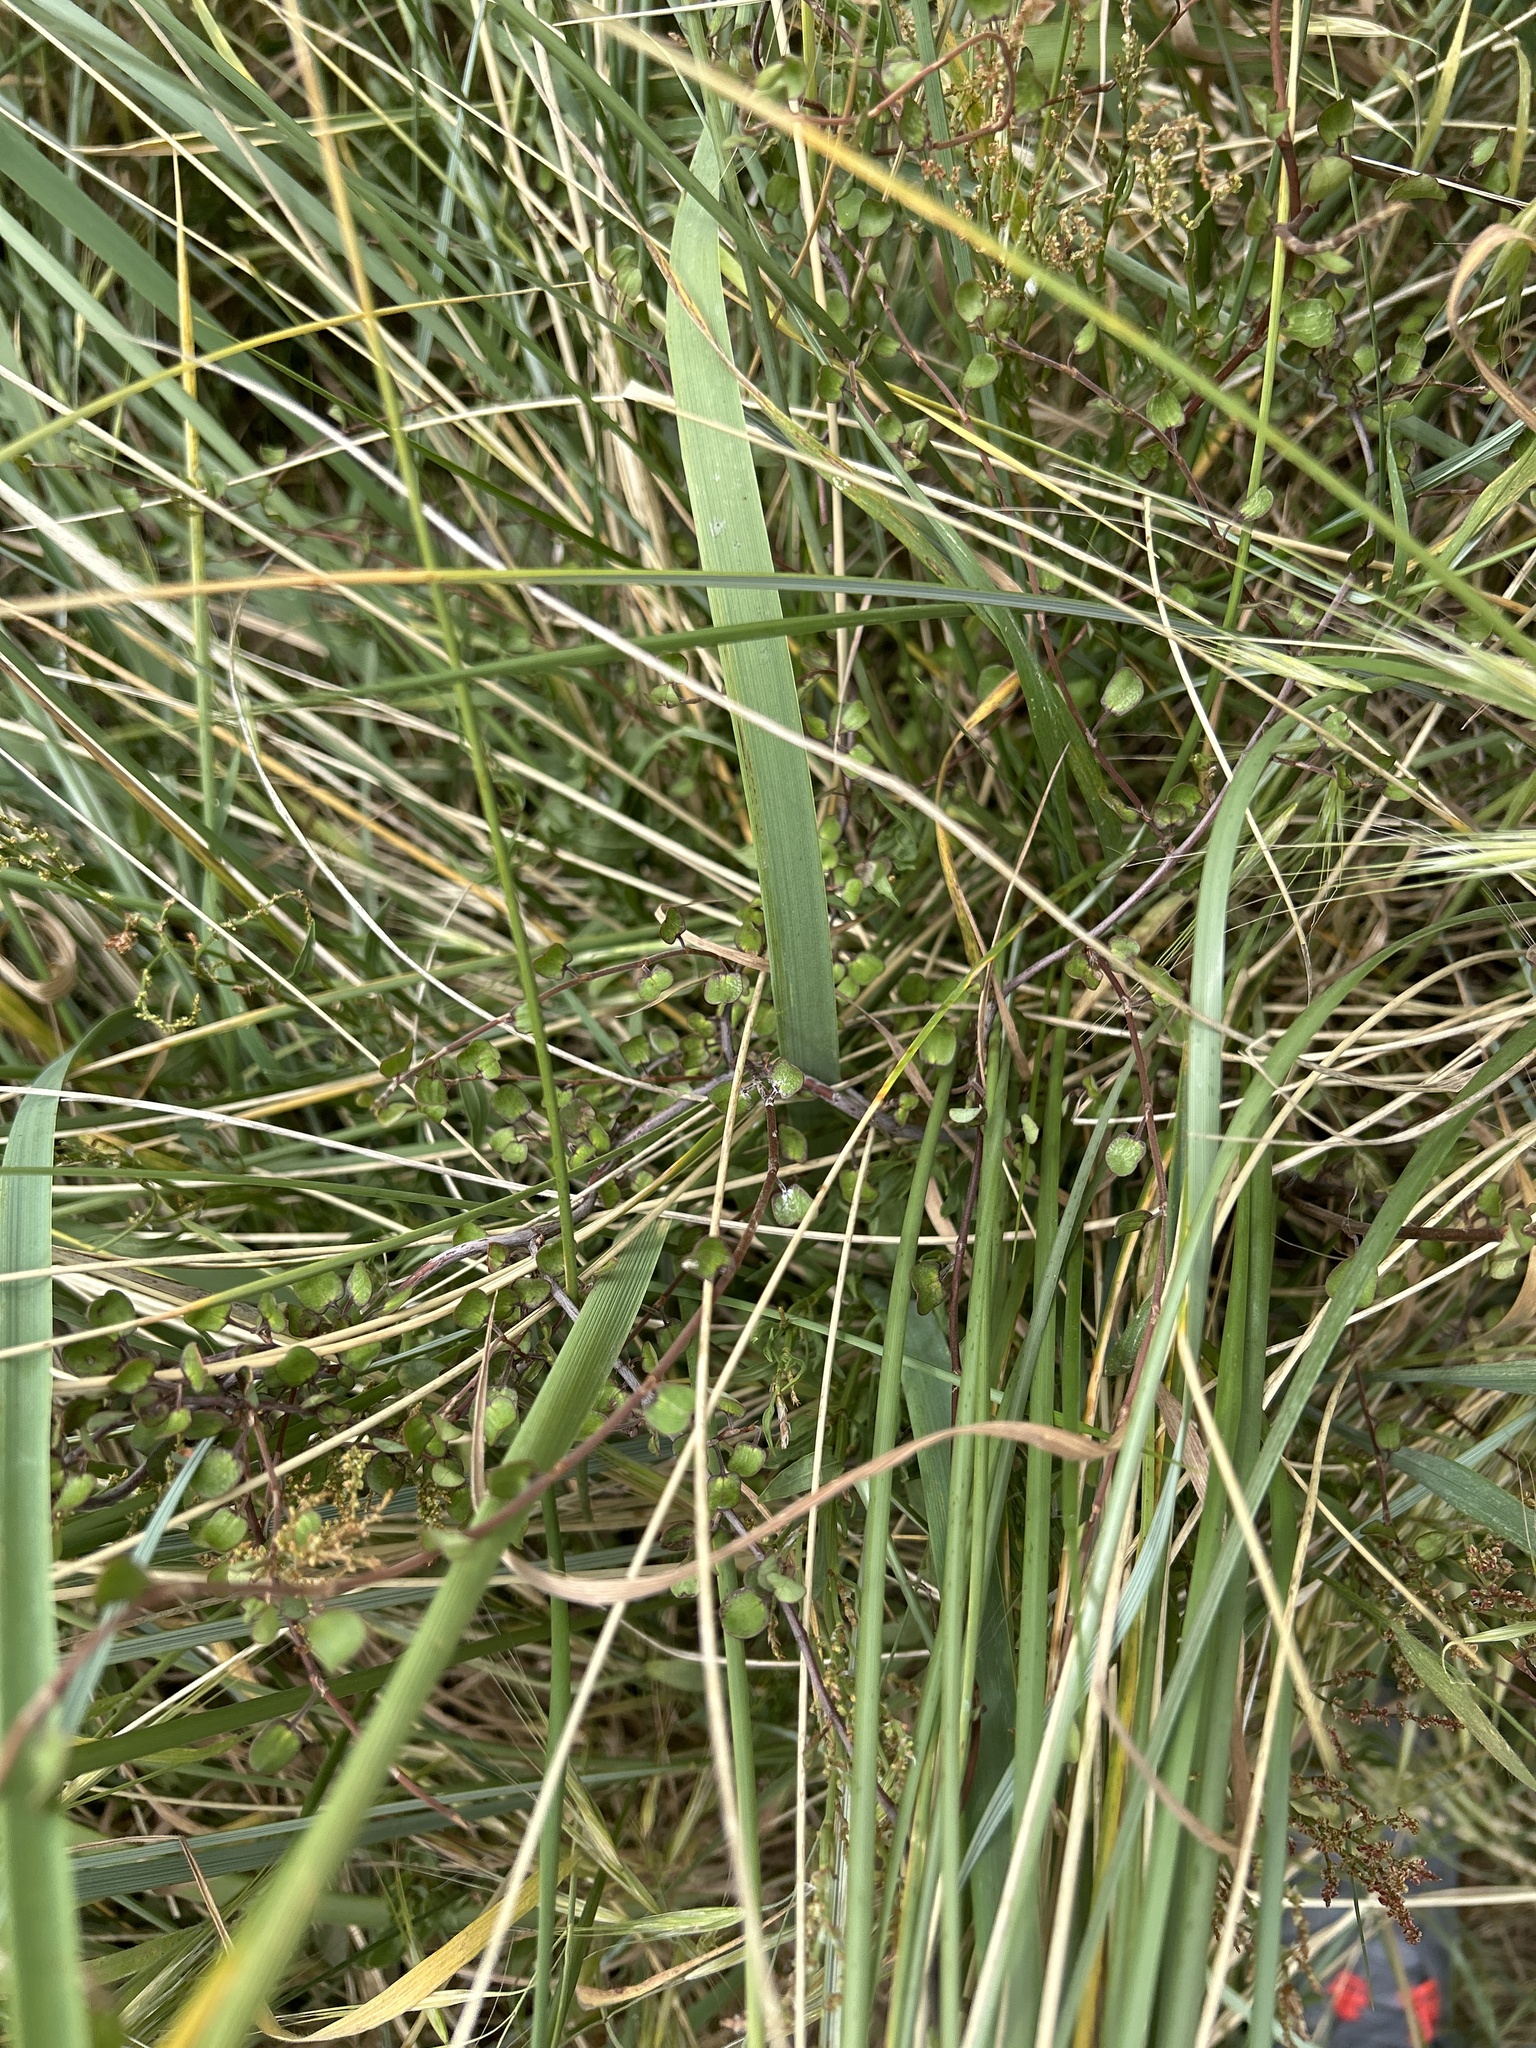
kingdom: Plantae
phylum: Tracheophyta
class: Magnoliopsida
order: Caryophyllales
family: Polygonaceae
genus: Muehlenbeckia
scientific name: Muehlenbeckia complexa
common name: Wireplant
